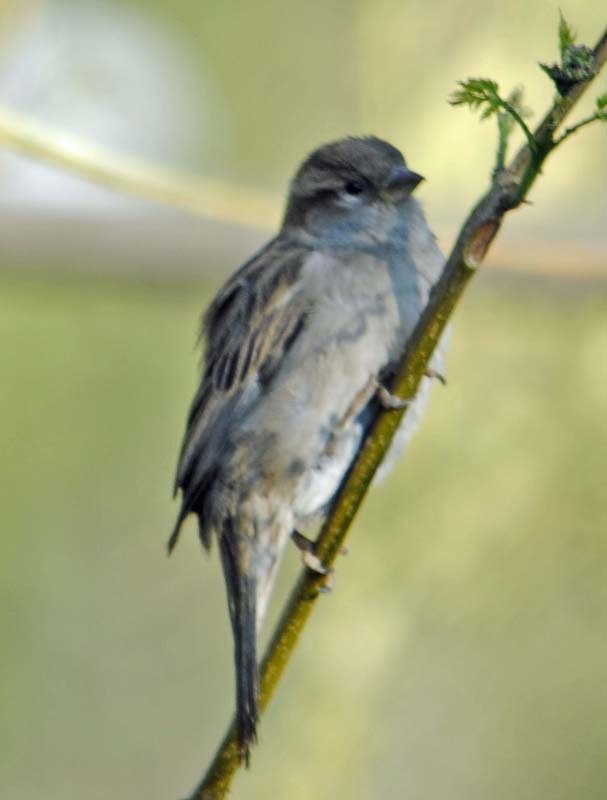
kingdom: Animalia
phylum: Chordata
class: Aves
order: Passeriformes
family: Passeridae
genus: Passer
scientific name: Passer domesticus
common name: House sparrow
